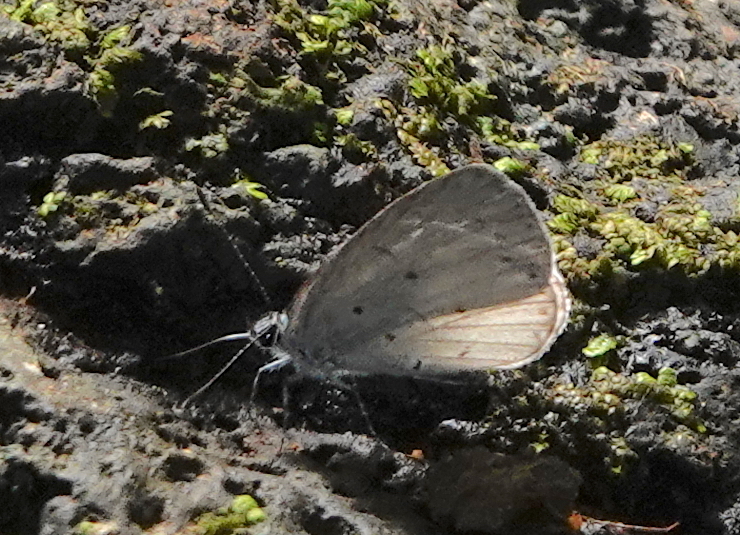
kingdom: Animalia
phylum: Arthropoda
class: Insecta
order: Lepidoptera
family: Lycaenidae
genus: Udara
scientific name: Udara
